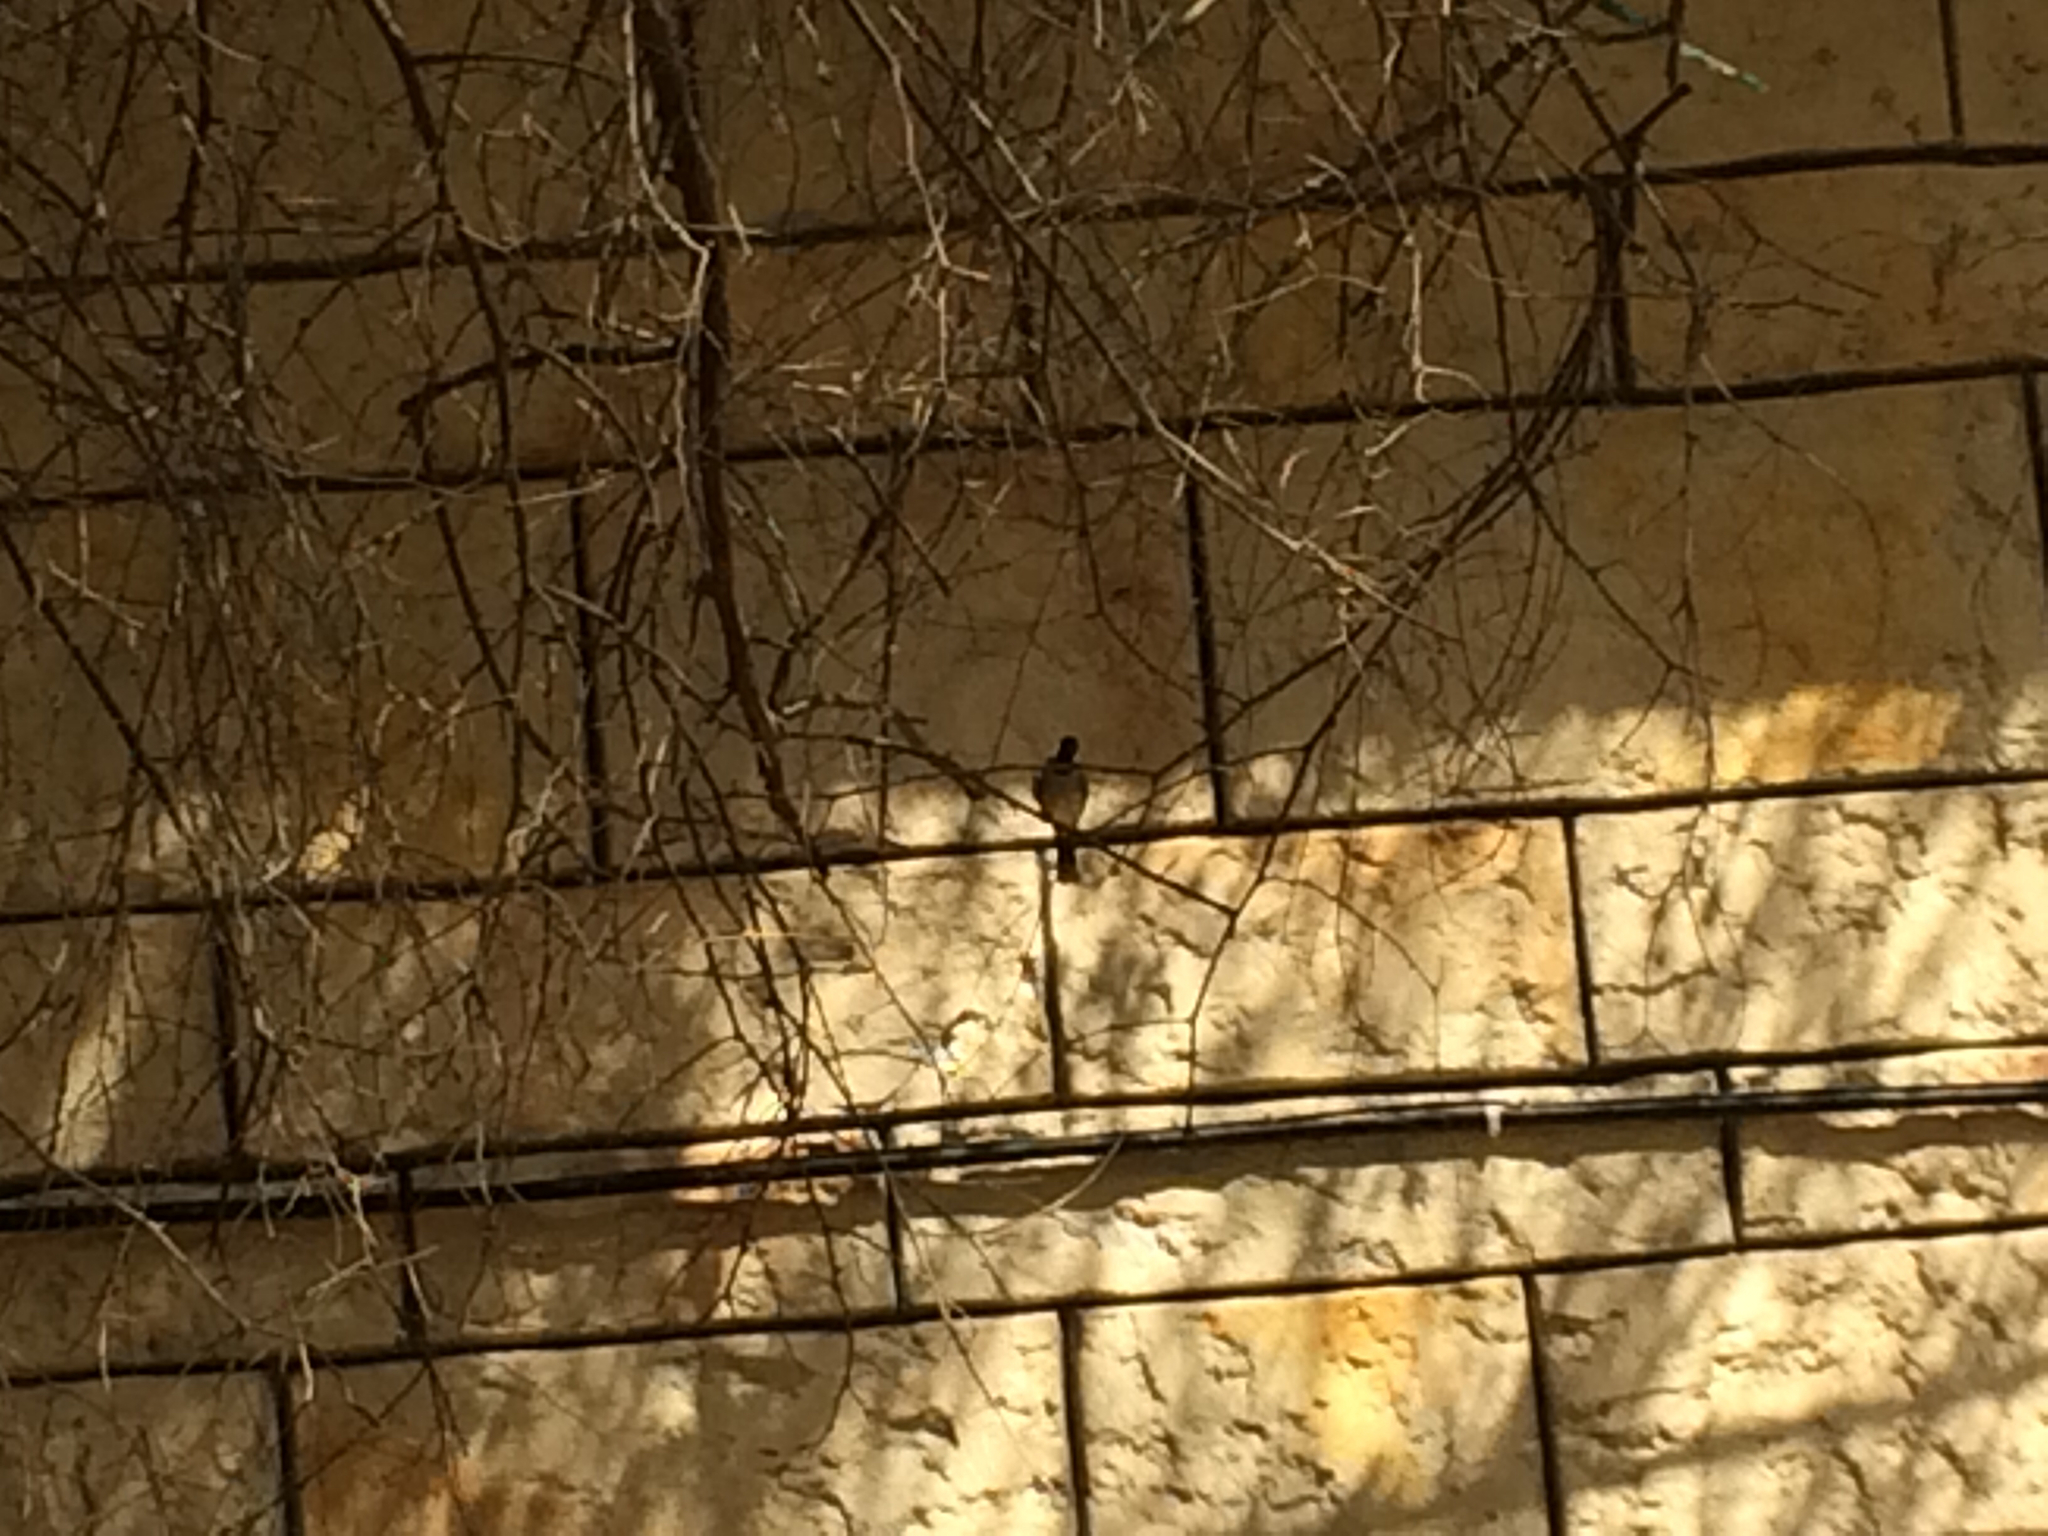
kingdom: Animalia
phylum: Chordata
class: Aves
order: Passeriformes
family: Pycnonotidae
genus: Pycnonotus
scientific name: Pycnonotus leucotis
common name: White-eared bulbul
